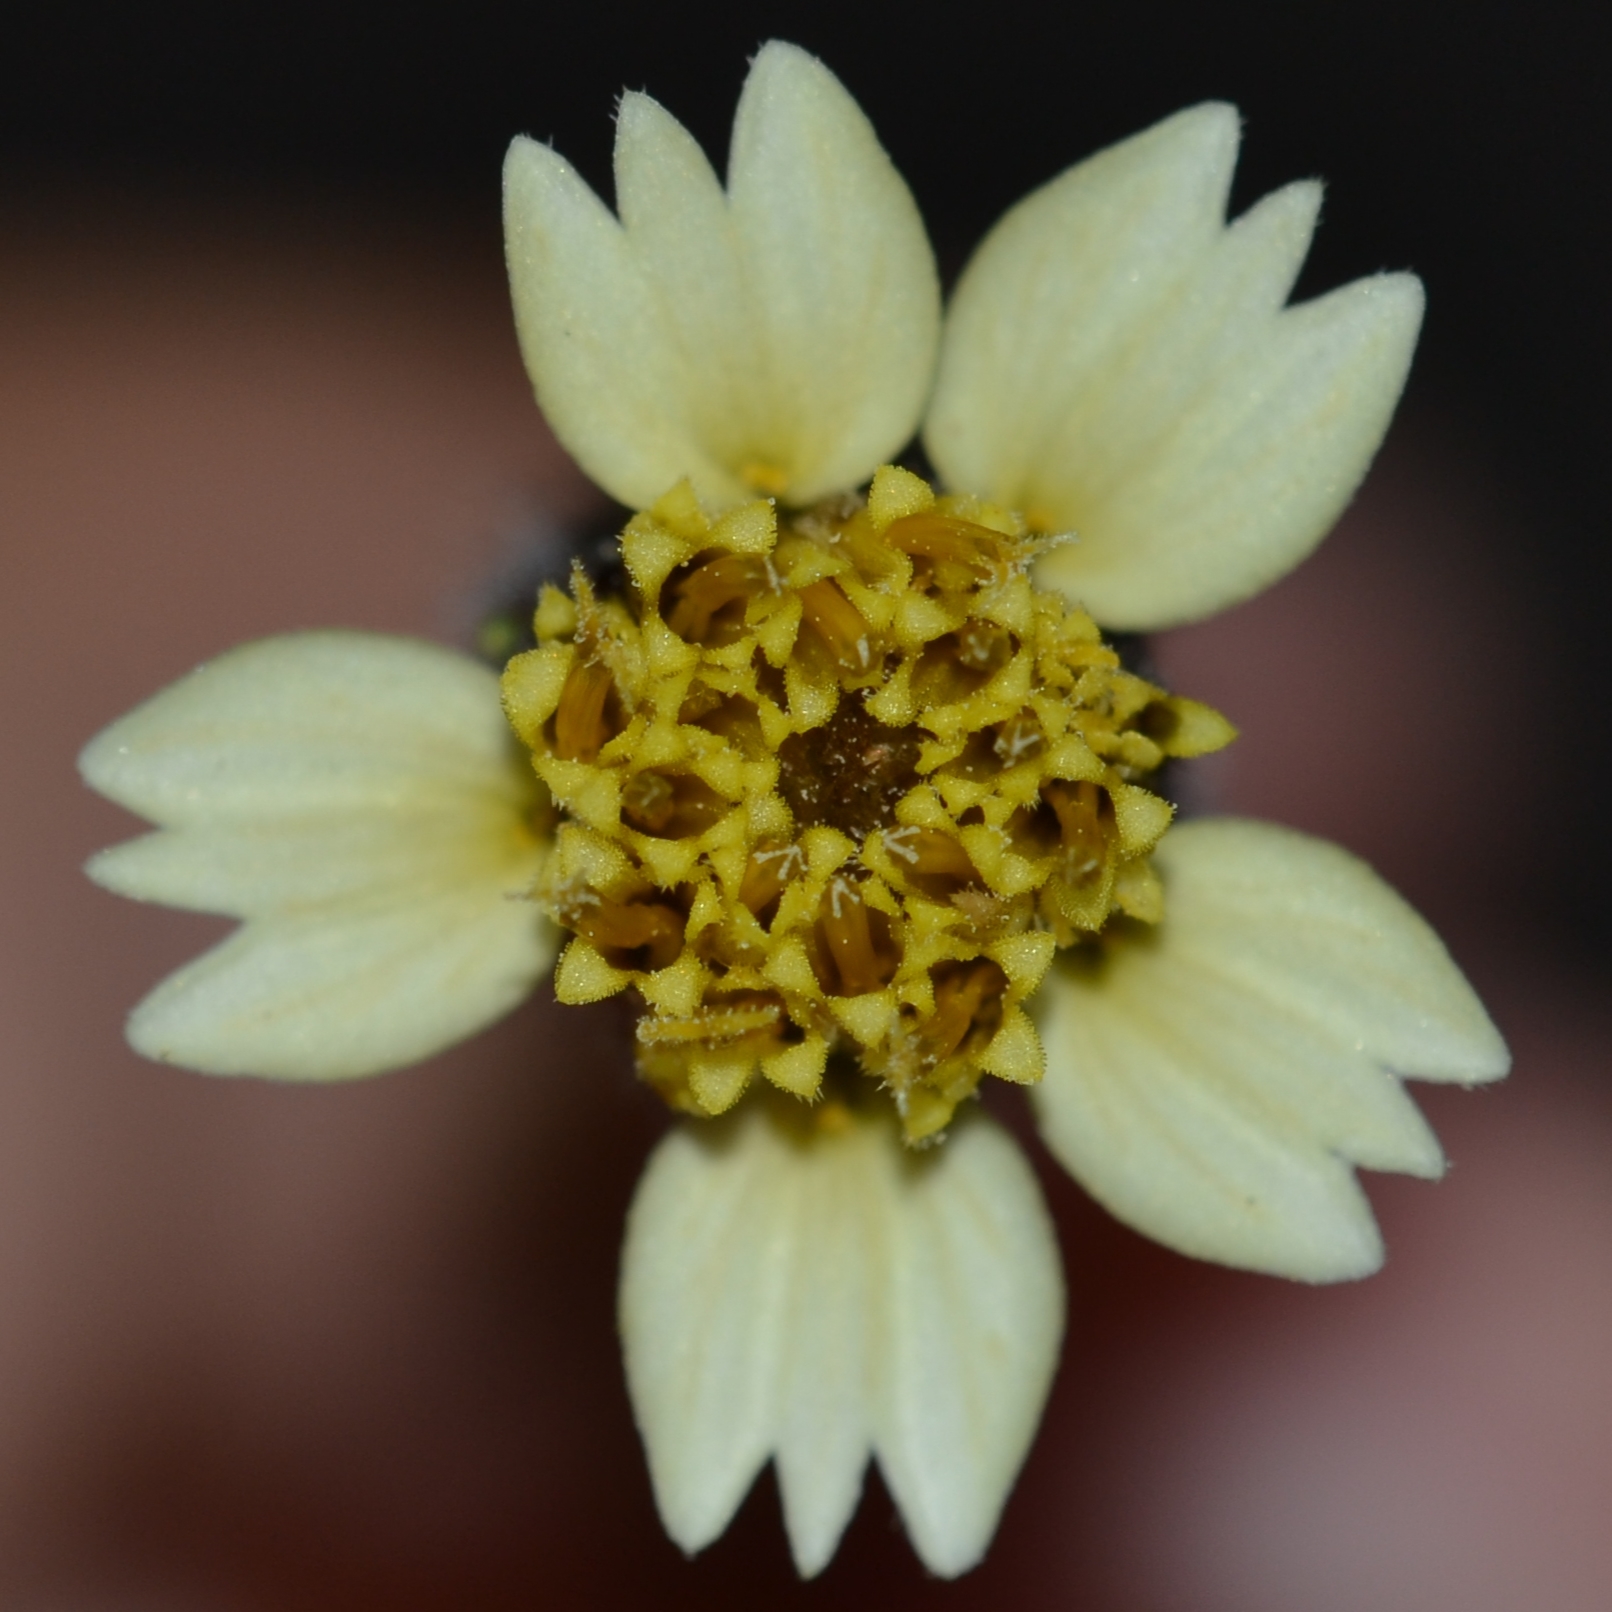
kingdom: Plantae
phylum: Tracheophyta
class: Magnoliopsida
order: Asterales
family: Asteraceae
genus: Tridax
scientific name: Tridax procumbens
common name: Coatbuttons
